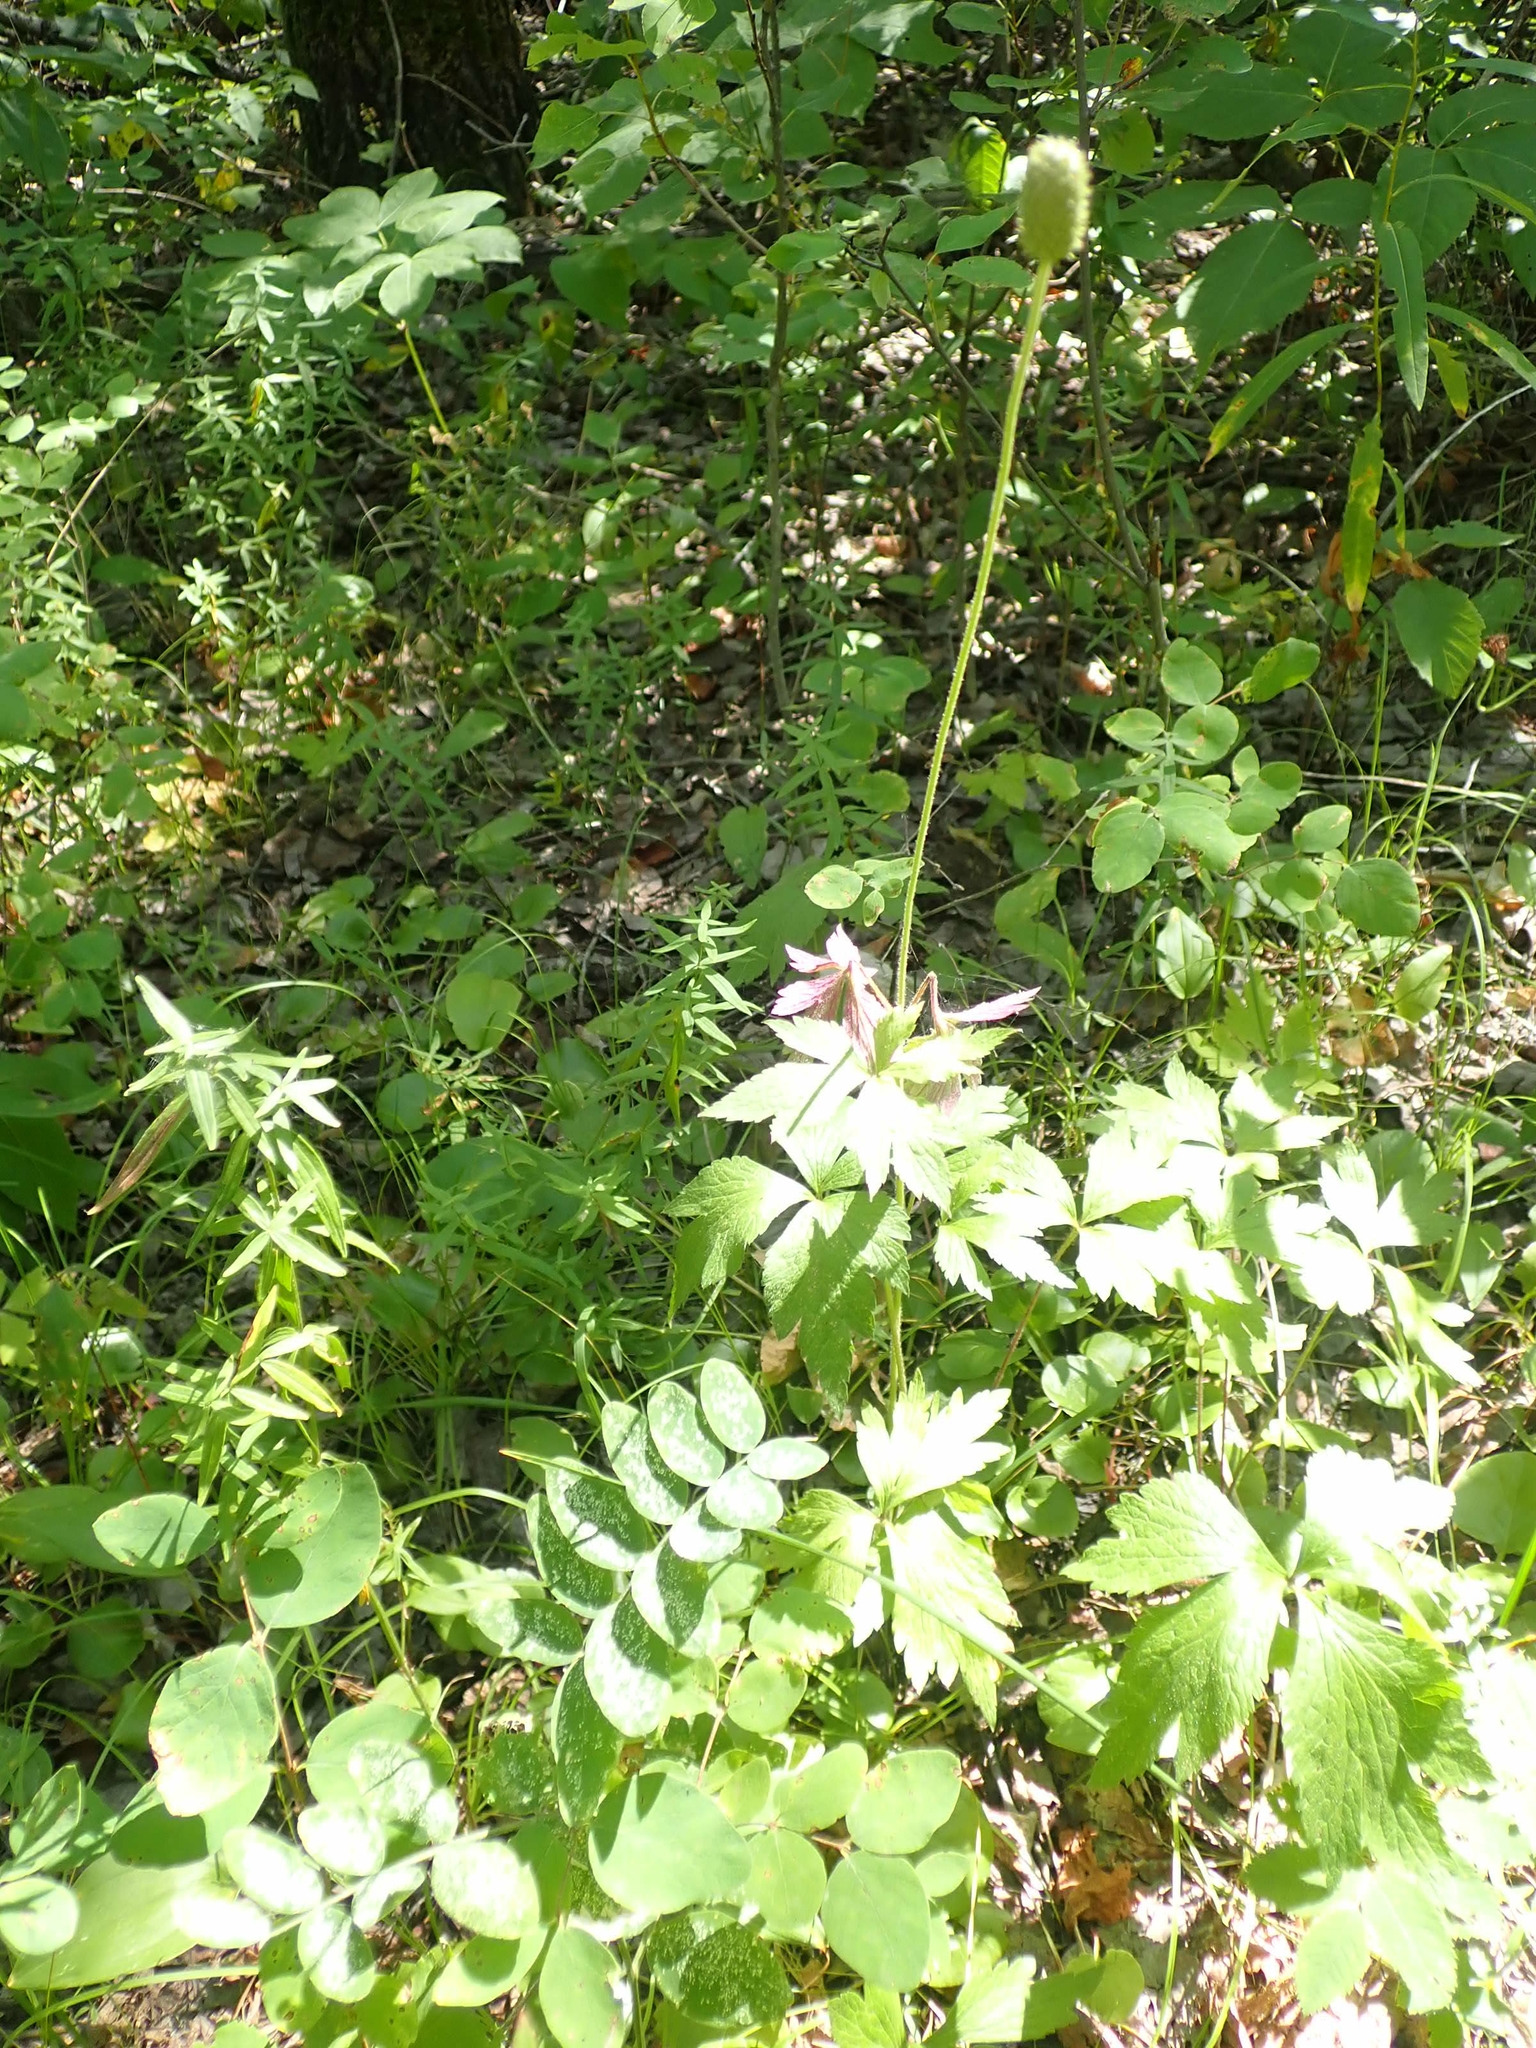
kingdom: Plantae
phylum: Tracheophyta
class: Magnoliopsida
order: Ranunculales
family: Ranunculaceae
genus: Anemone
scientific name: Anemone cylindrica
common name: Candle anemone
